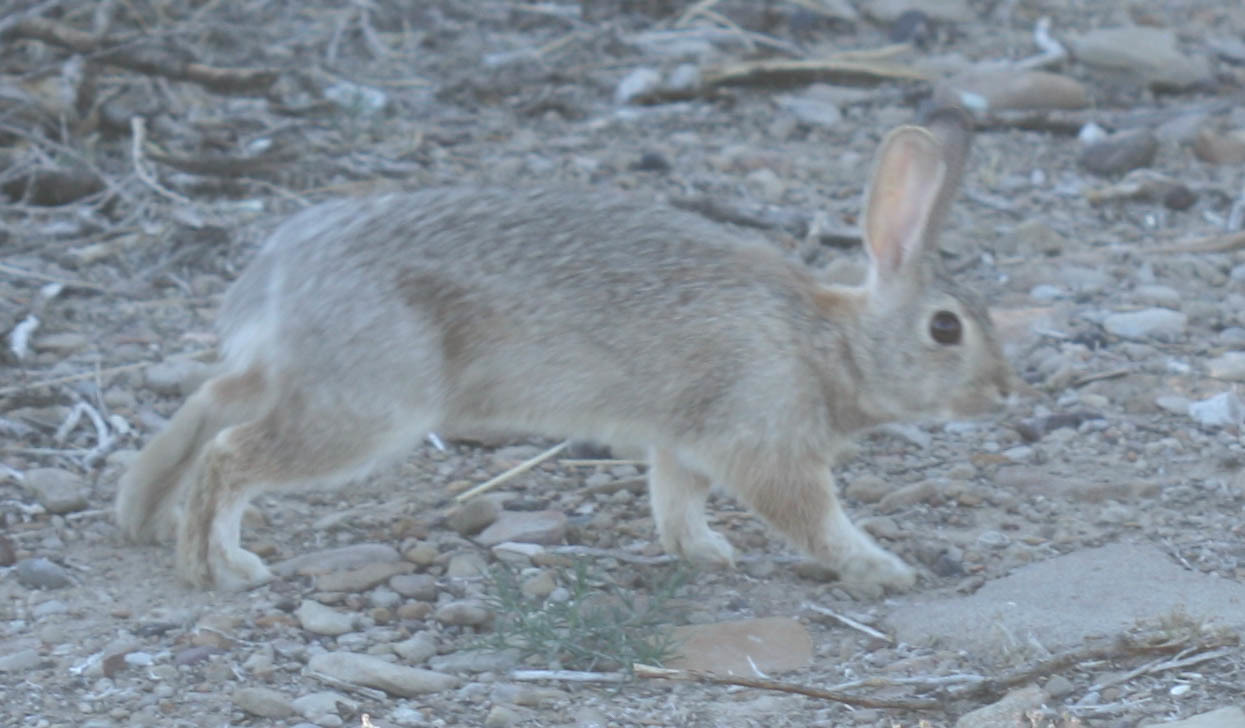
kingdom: Animalia
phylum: Chordata
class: Mammalia
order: Lagomorpha
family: Leporidae
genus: Sylvilagus
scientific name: Sylvilagus audubonii
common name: Desert cottontail
